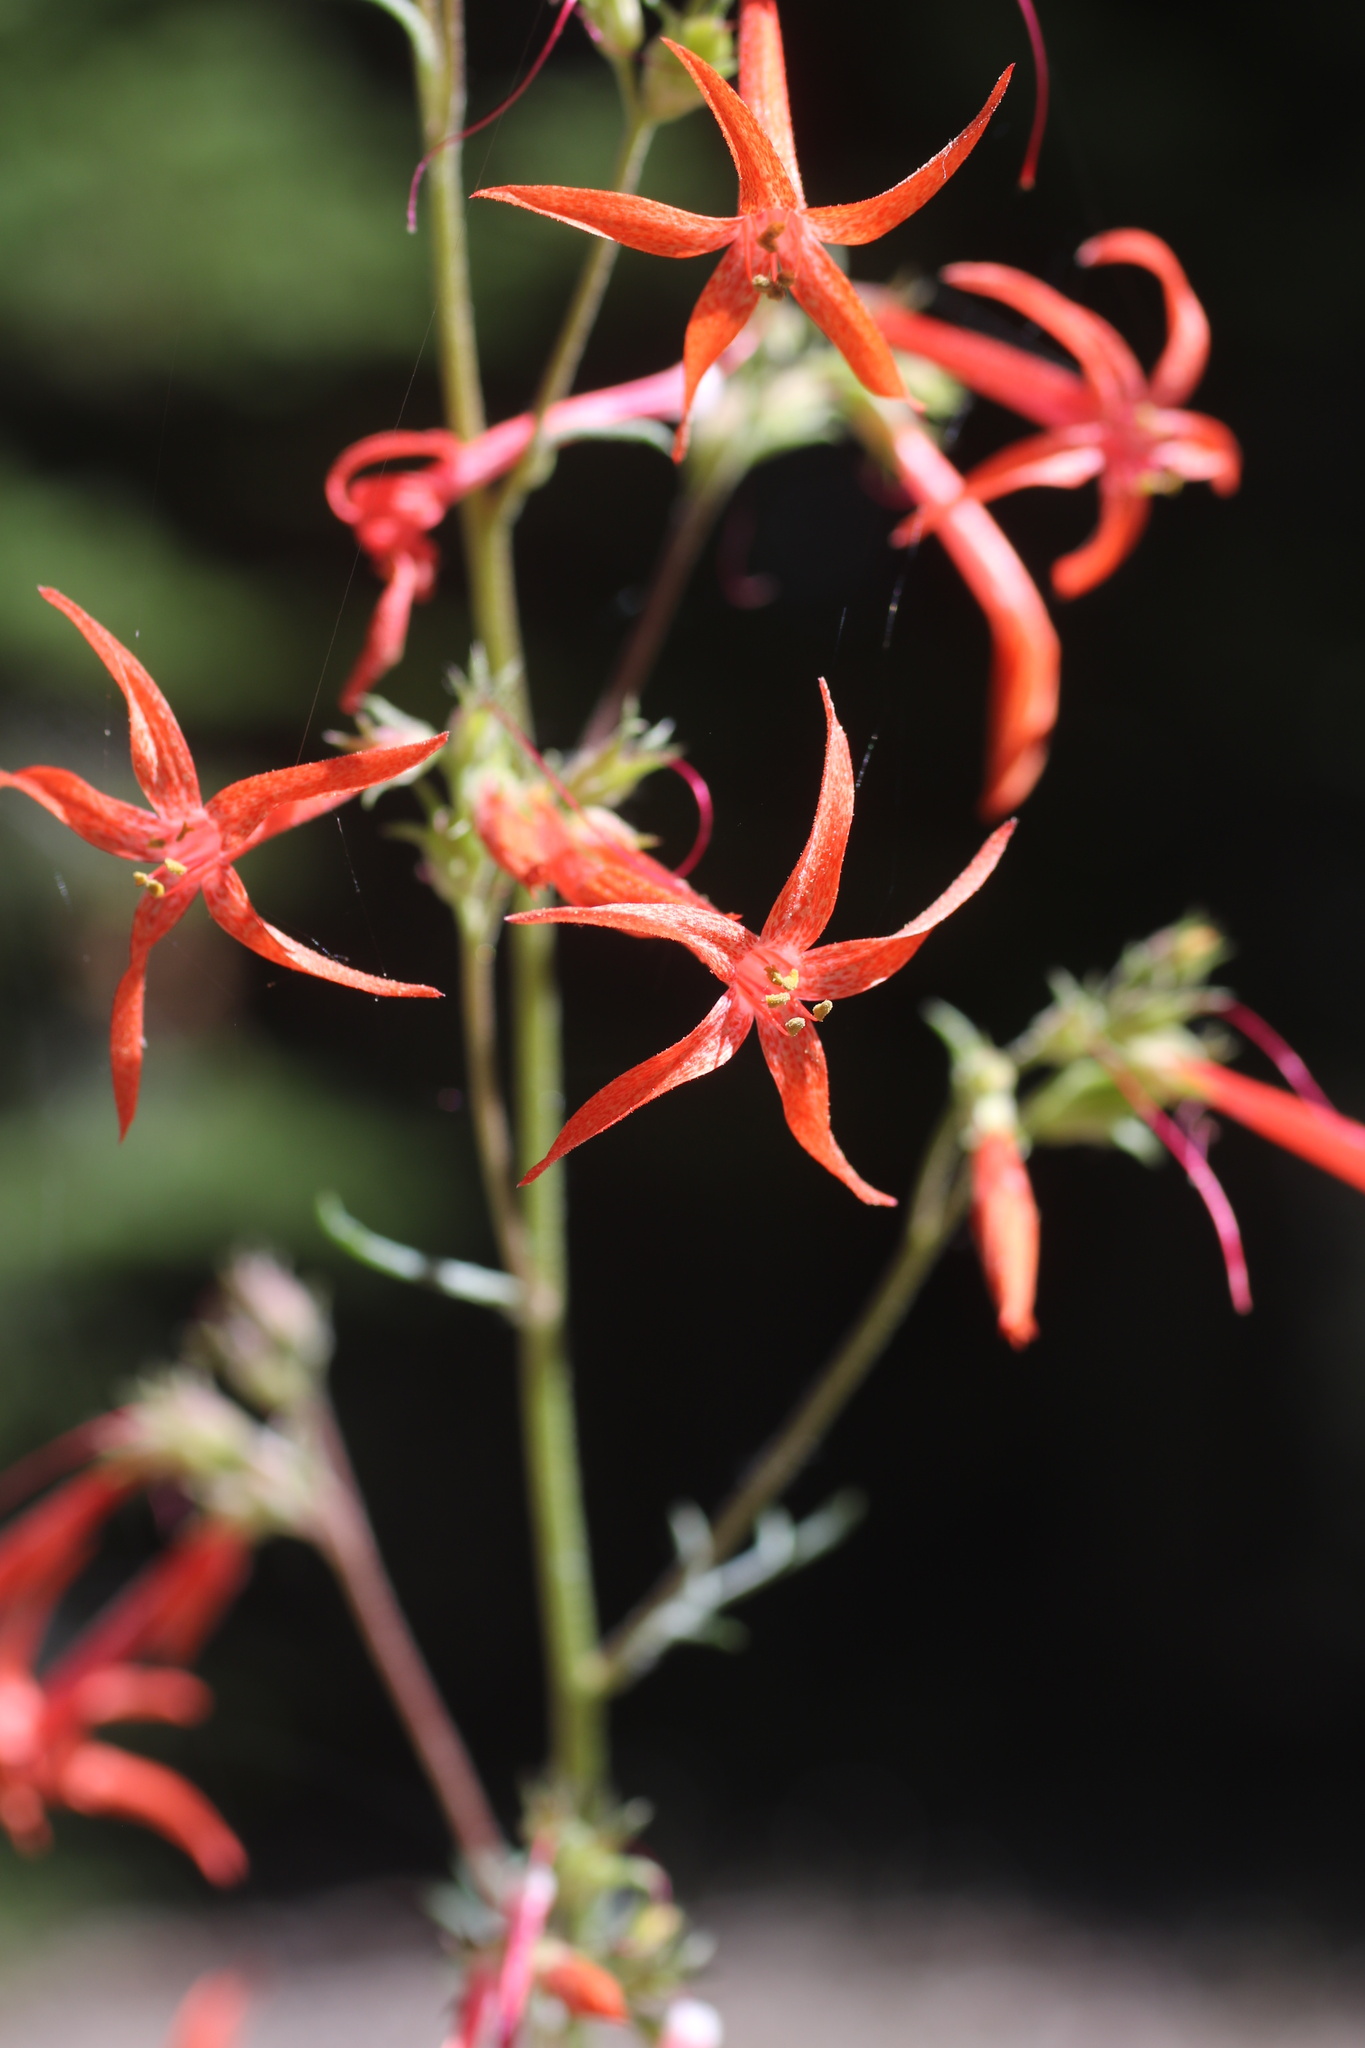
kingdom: Plantae
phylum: Tracheophyta
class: Magnoliopsida
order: Ericales
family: Polemoniaceae
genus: Ipomopsis
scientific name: Ipomopsis aggregata
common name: Scarlet gilia
